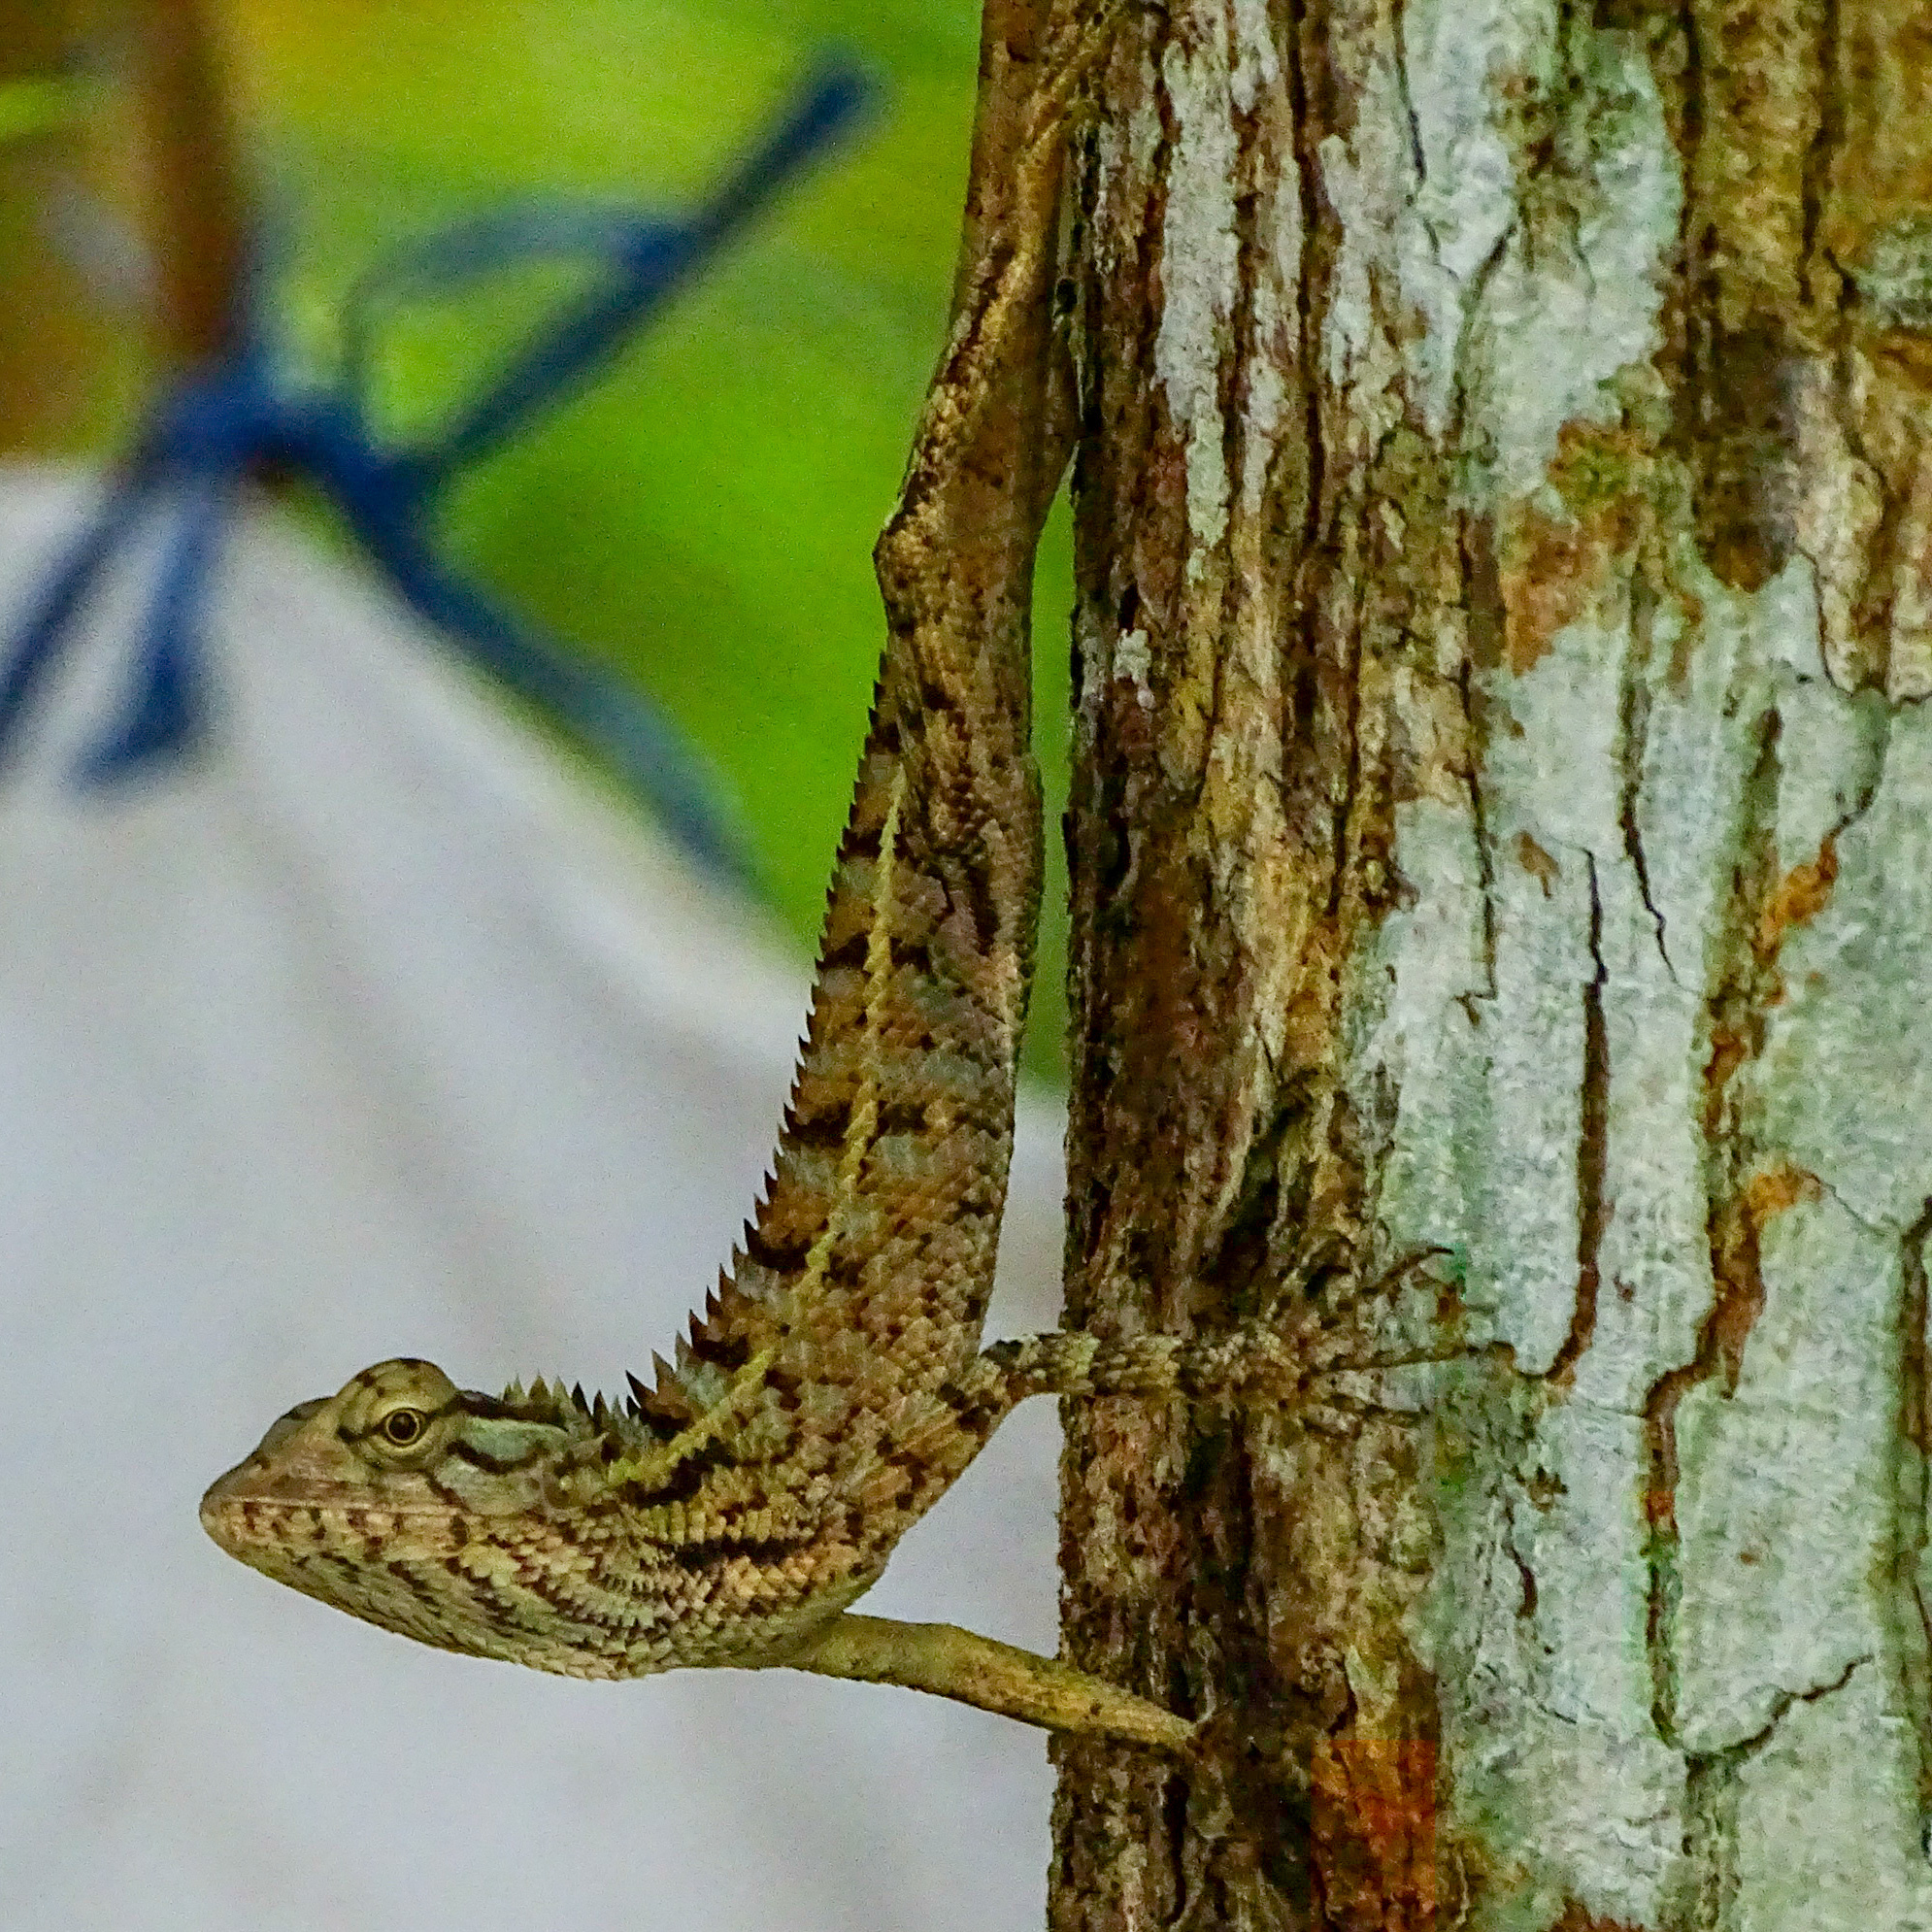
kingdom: Animalia
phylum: Chordata
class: Squamata
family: Agamidae
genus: Calotes
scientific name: Calotes versicolor
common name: Oriental garden lizard
